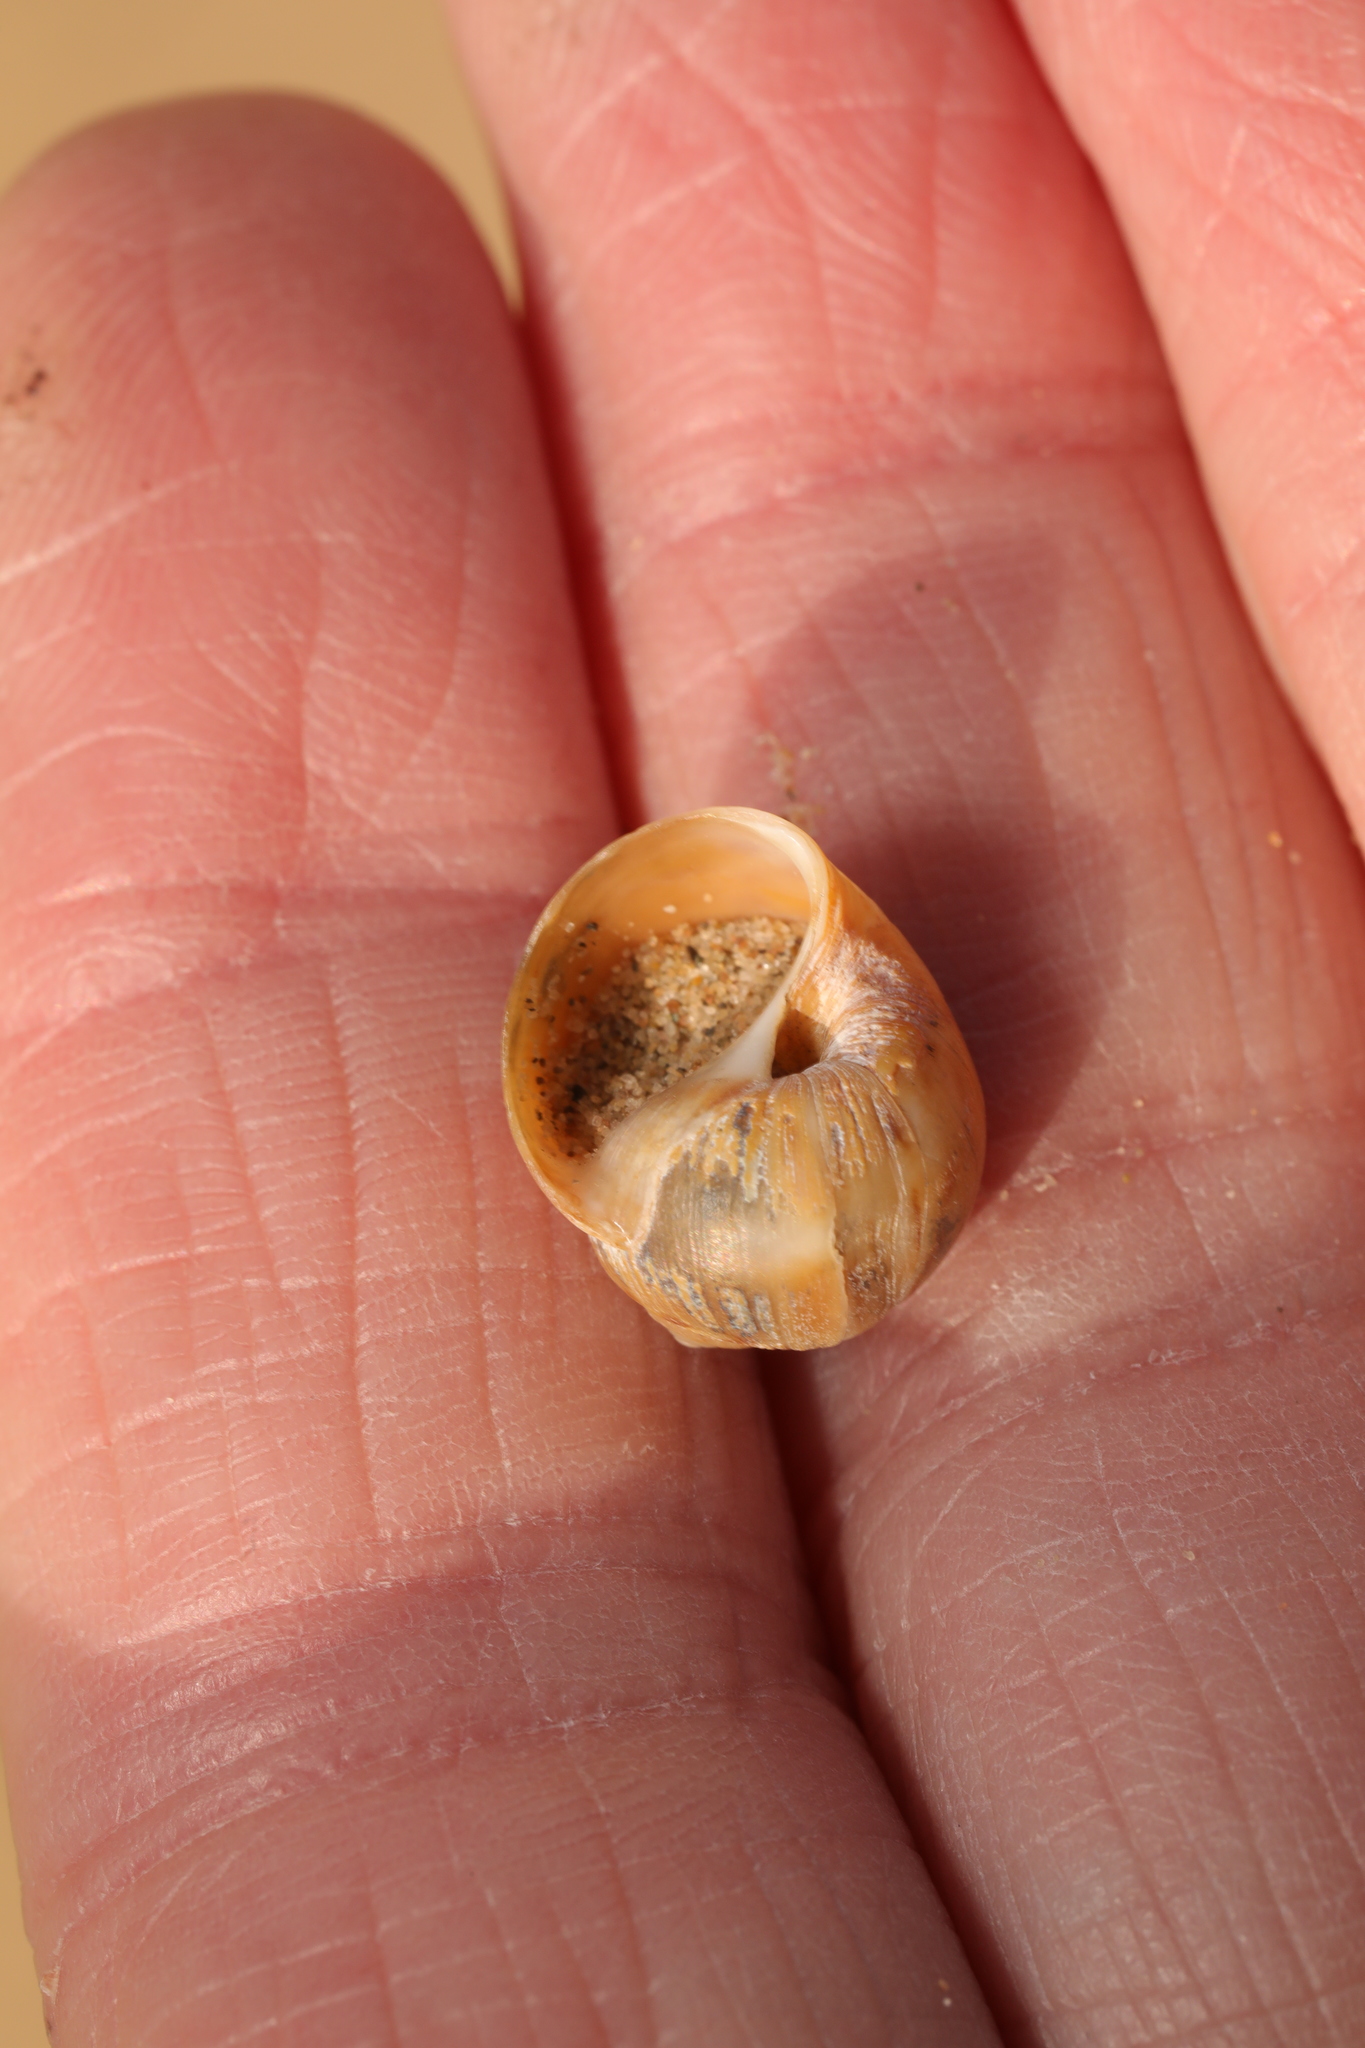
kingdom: Animalia
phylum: Mollusca
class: Gastropoda
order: Littorinimorpha
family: Naticidae
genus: Euspira
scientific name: Euspira catena
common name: Necklace shell
